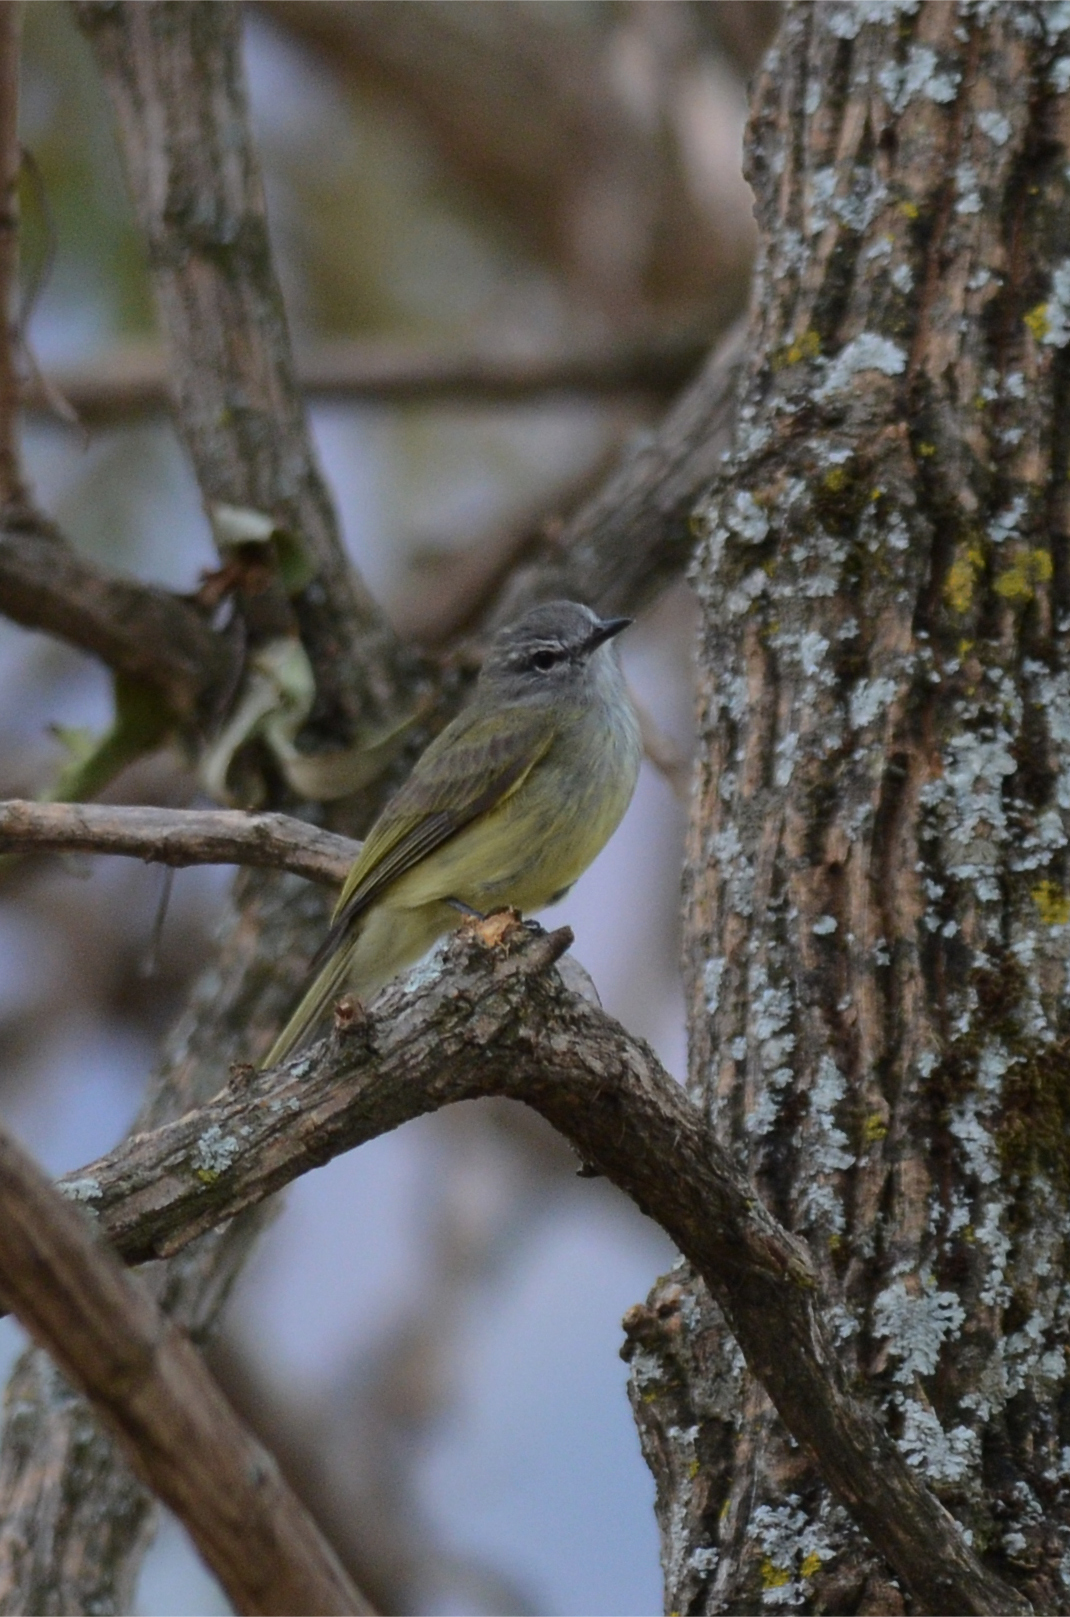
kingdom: Animalia
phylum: Chordata
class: Aves
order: Passeriformes
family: Tyrannidae
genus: Myiopagis
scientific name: Myiopagis viridicata
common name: Greenish elaenia
